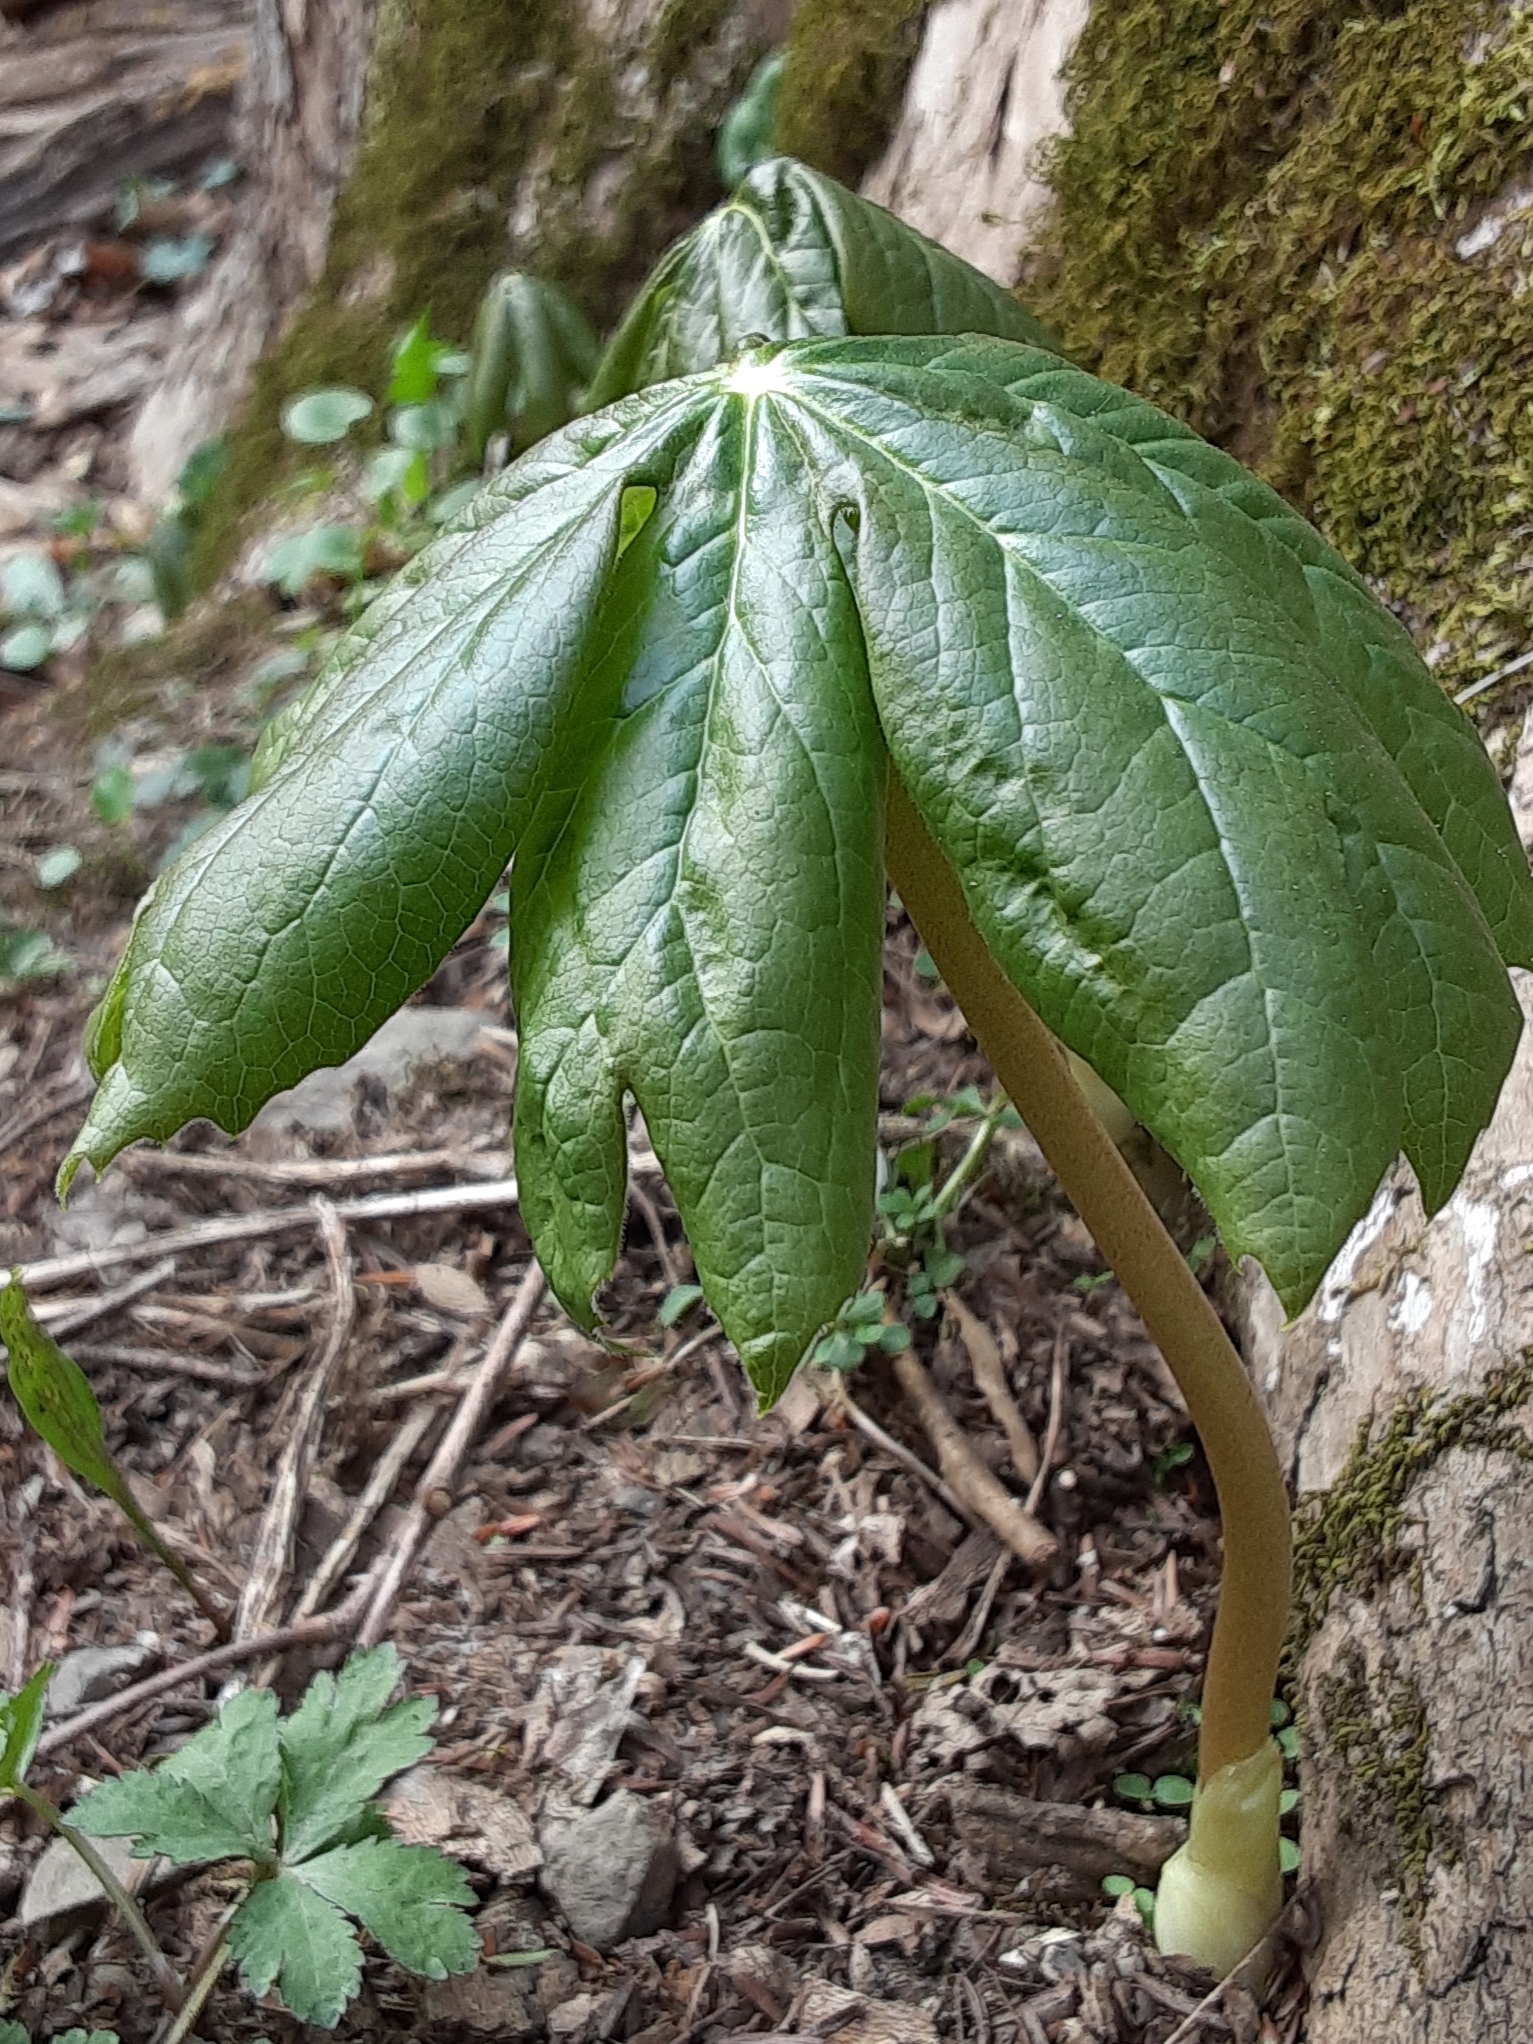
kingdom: Plantae
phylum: Tracheophyta
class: Magnoliopsida
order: Ranunculales
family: Berberidaceae
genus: Podophyllum
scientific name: Podophyllum peltatum
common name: Wild mandrake
